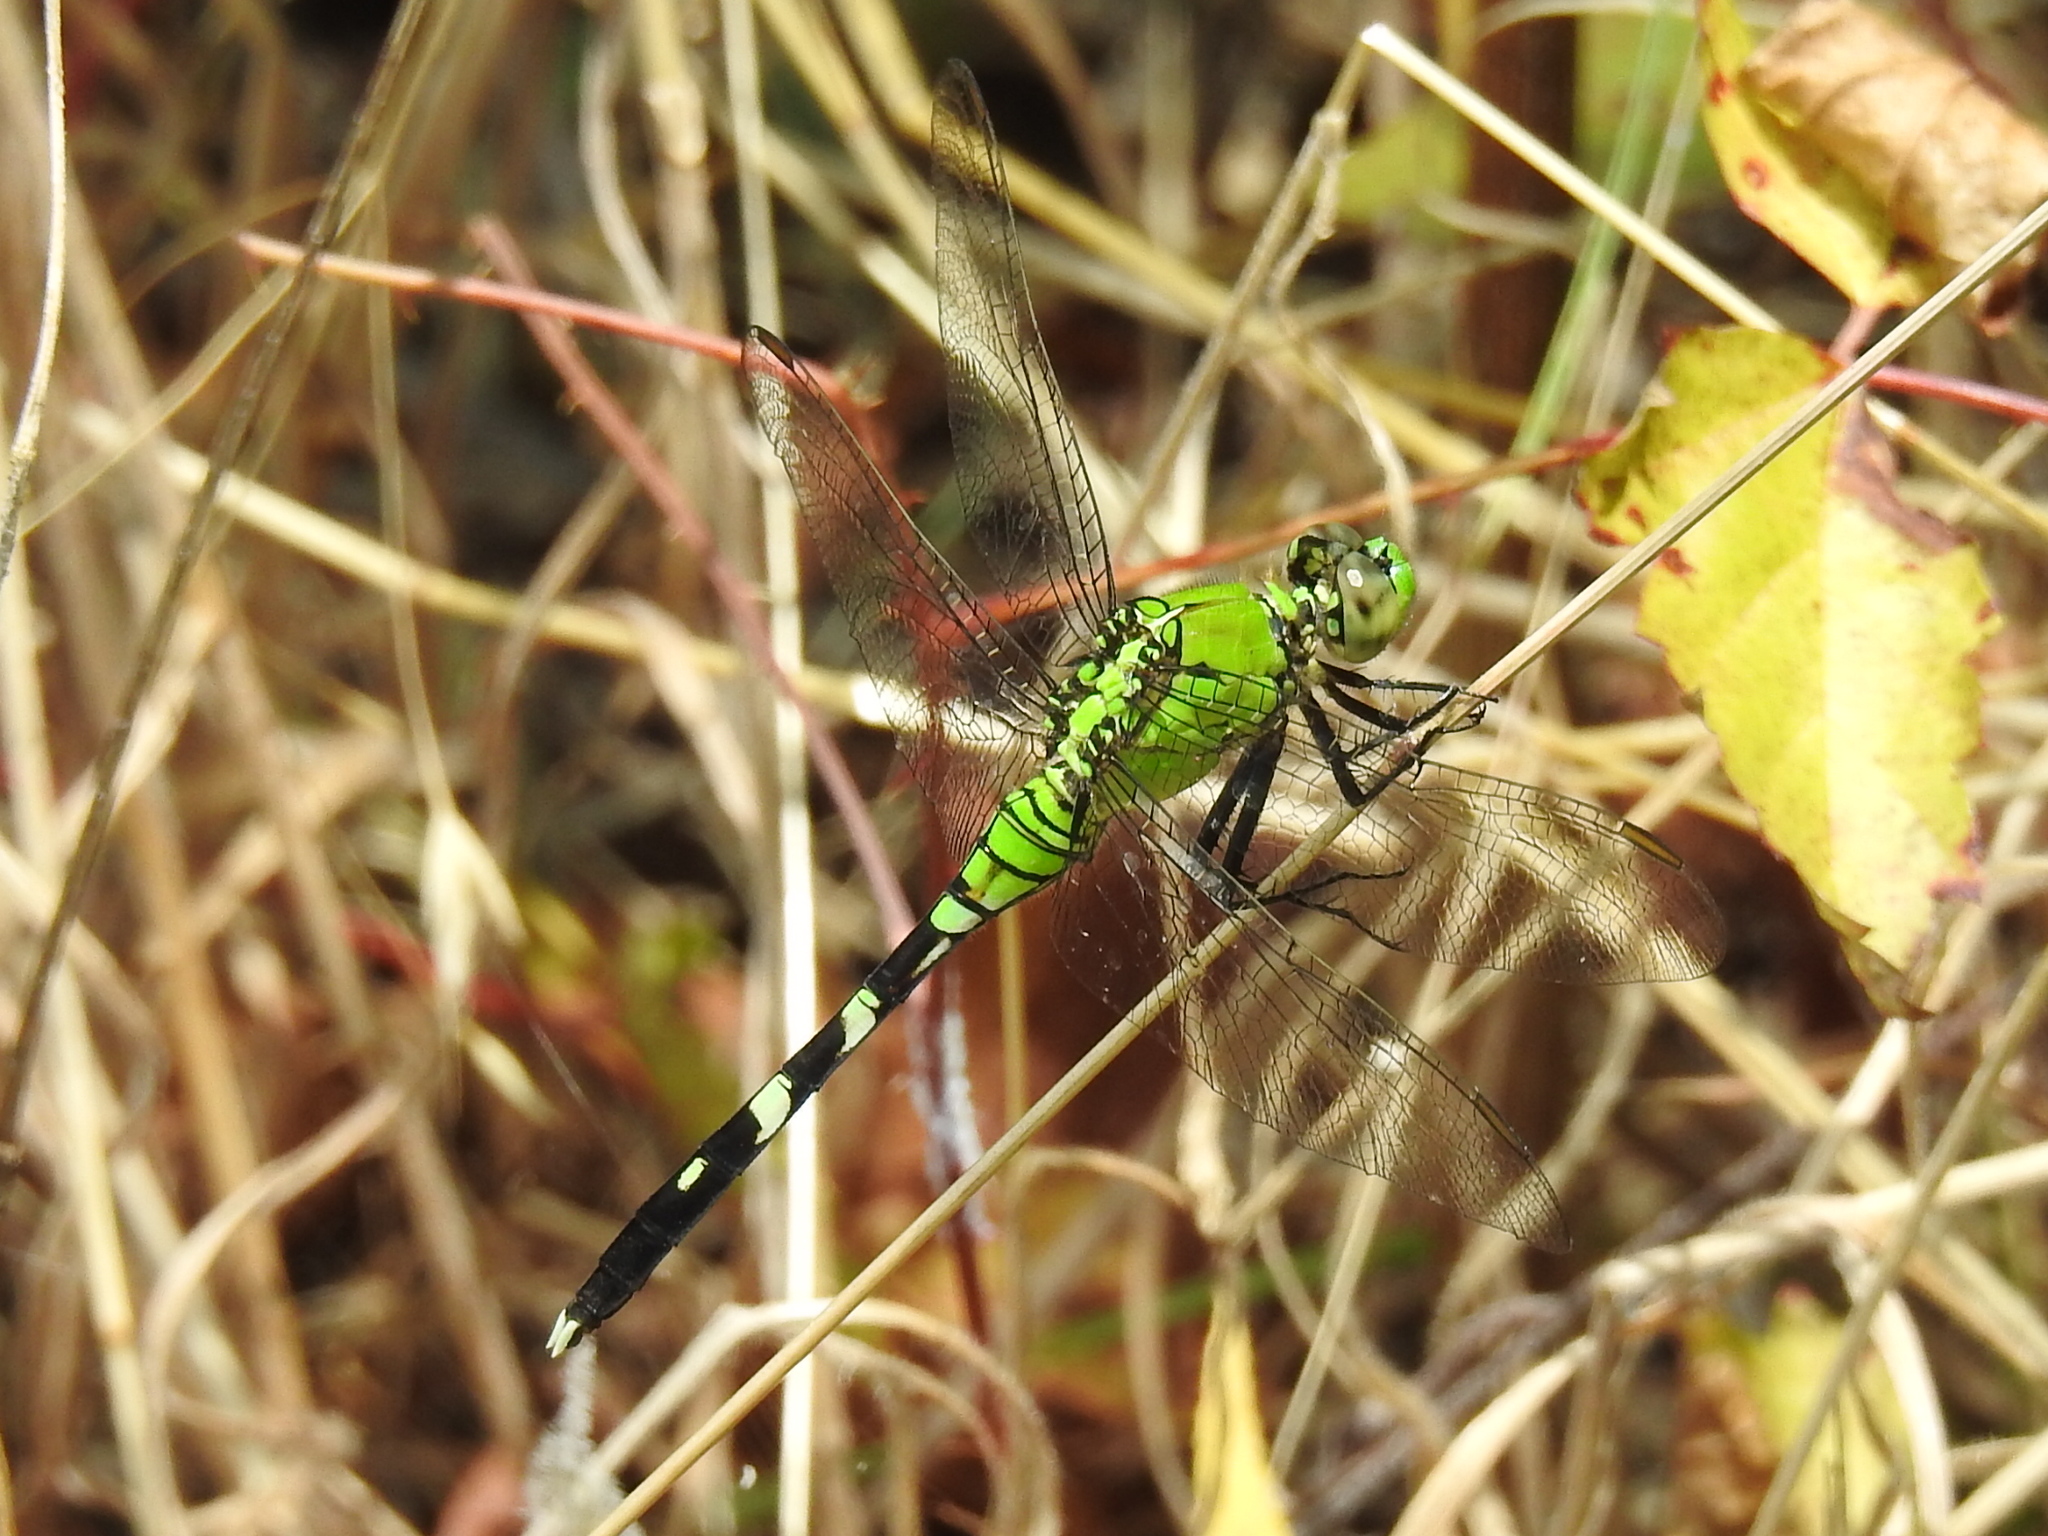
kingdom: Animalia
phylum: Arthropoda
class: Insecta
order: Odonata
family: Libellulidae
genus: Erythemis
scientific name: Erythemis simplicicollis
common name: Eastern pondhawk
